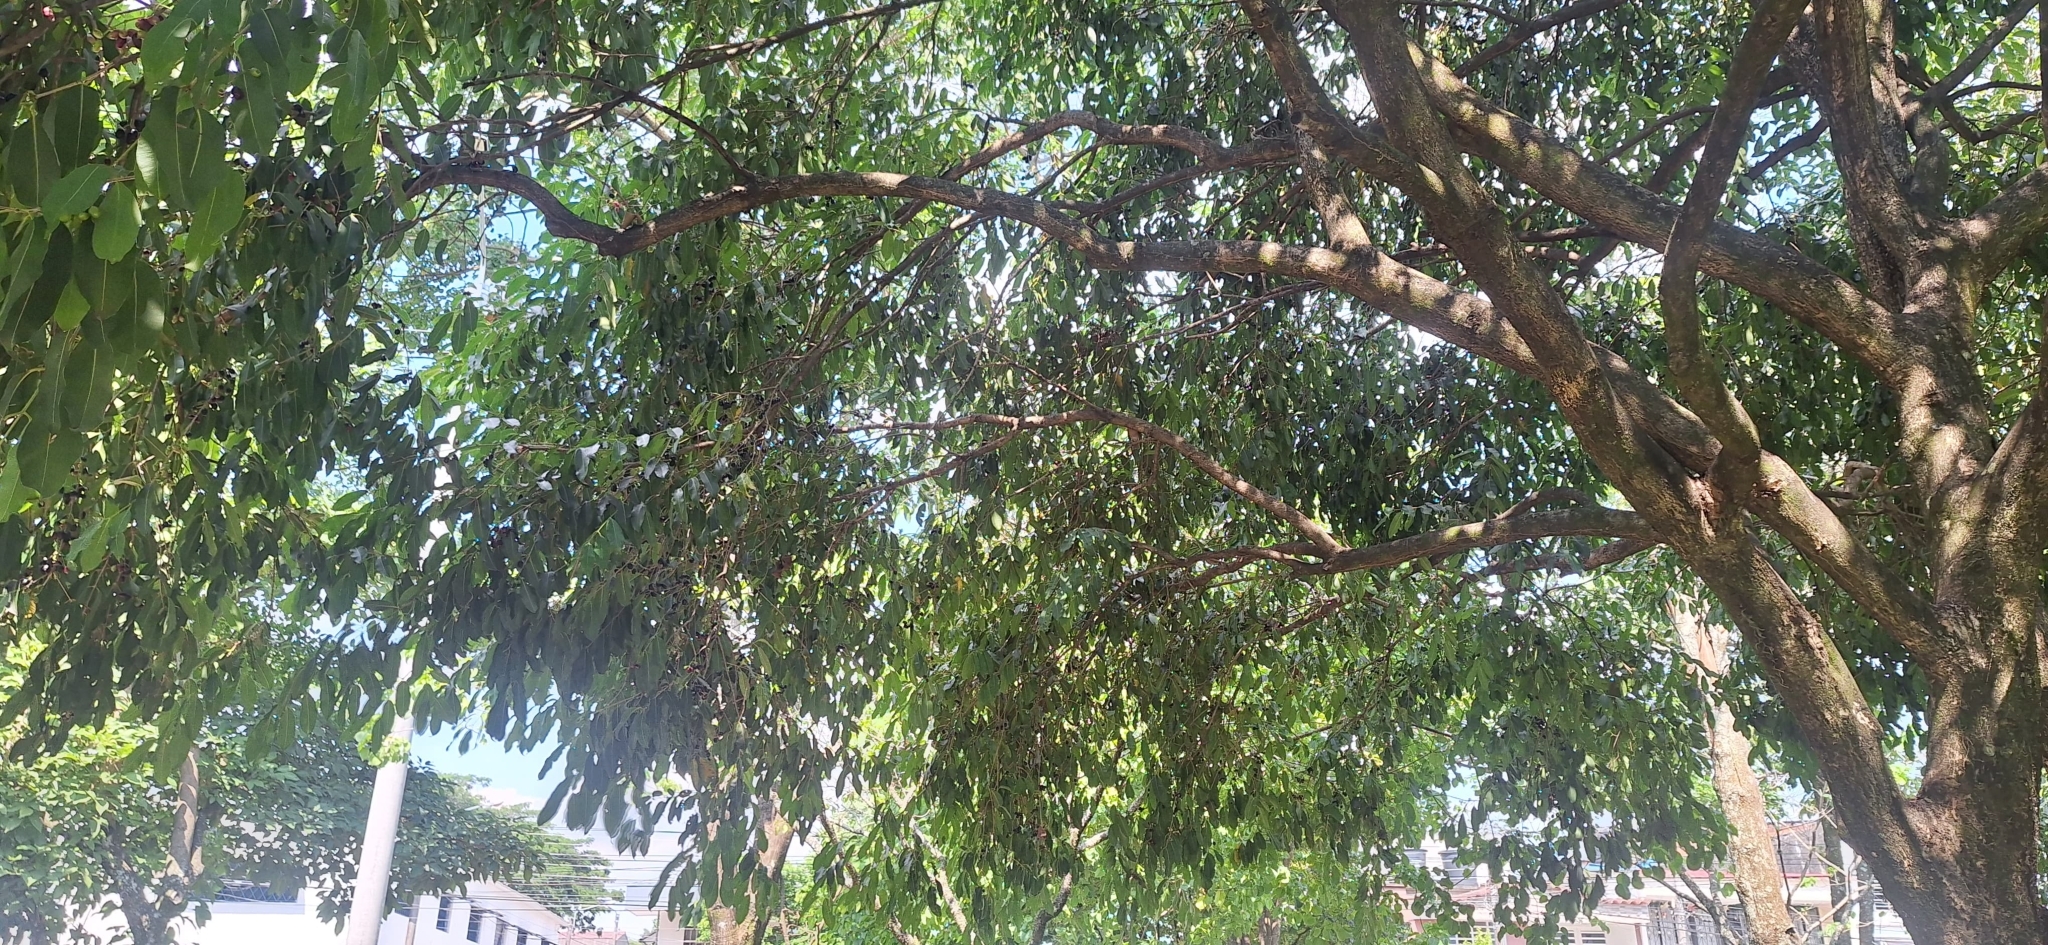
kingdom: Plantae
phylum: Tracheophyta
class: Magnoliopsida
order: Myrtales
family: Myrtaceae
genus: Syzygium
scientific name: Syzygium cumini
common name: Java plum
